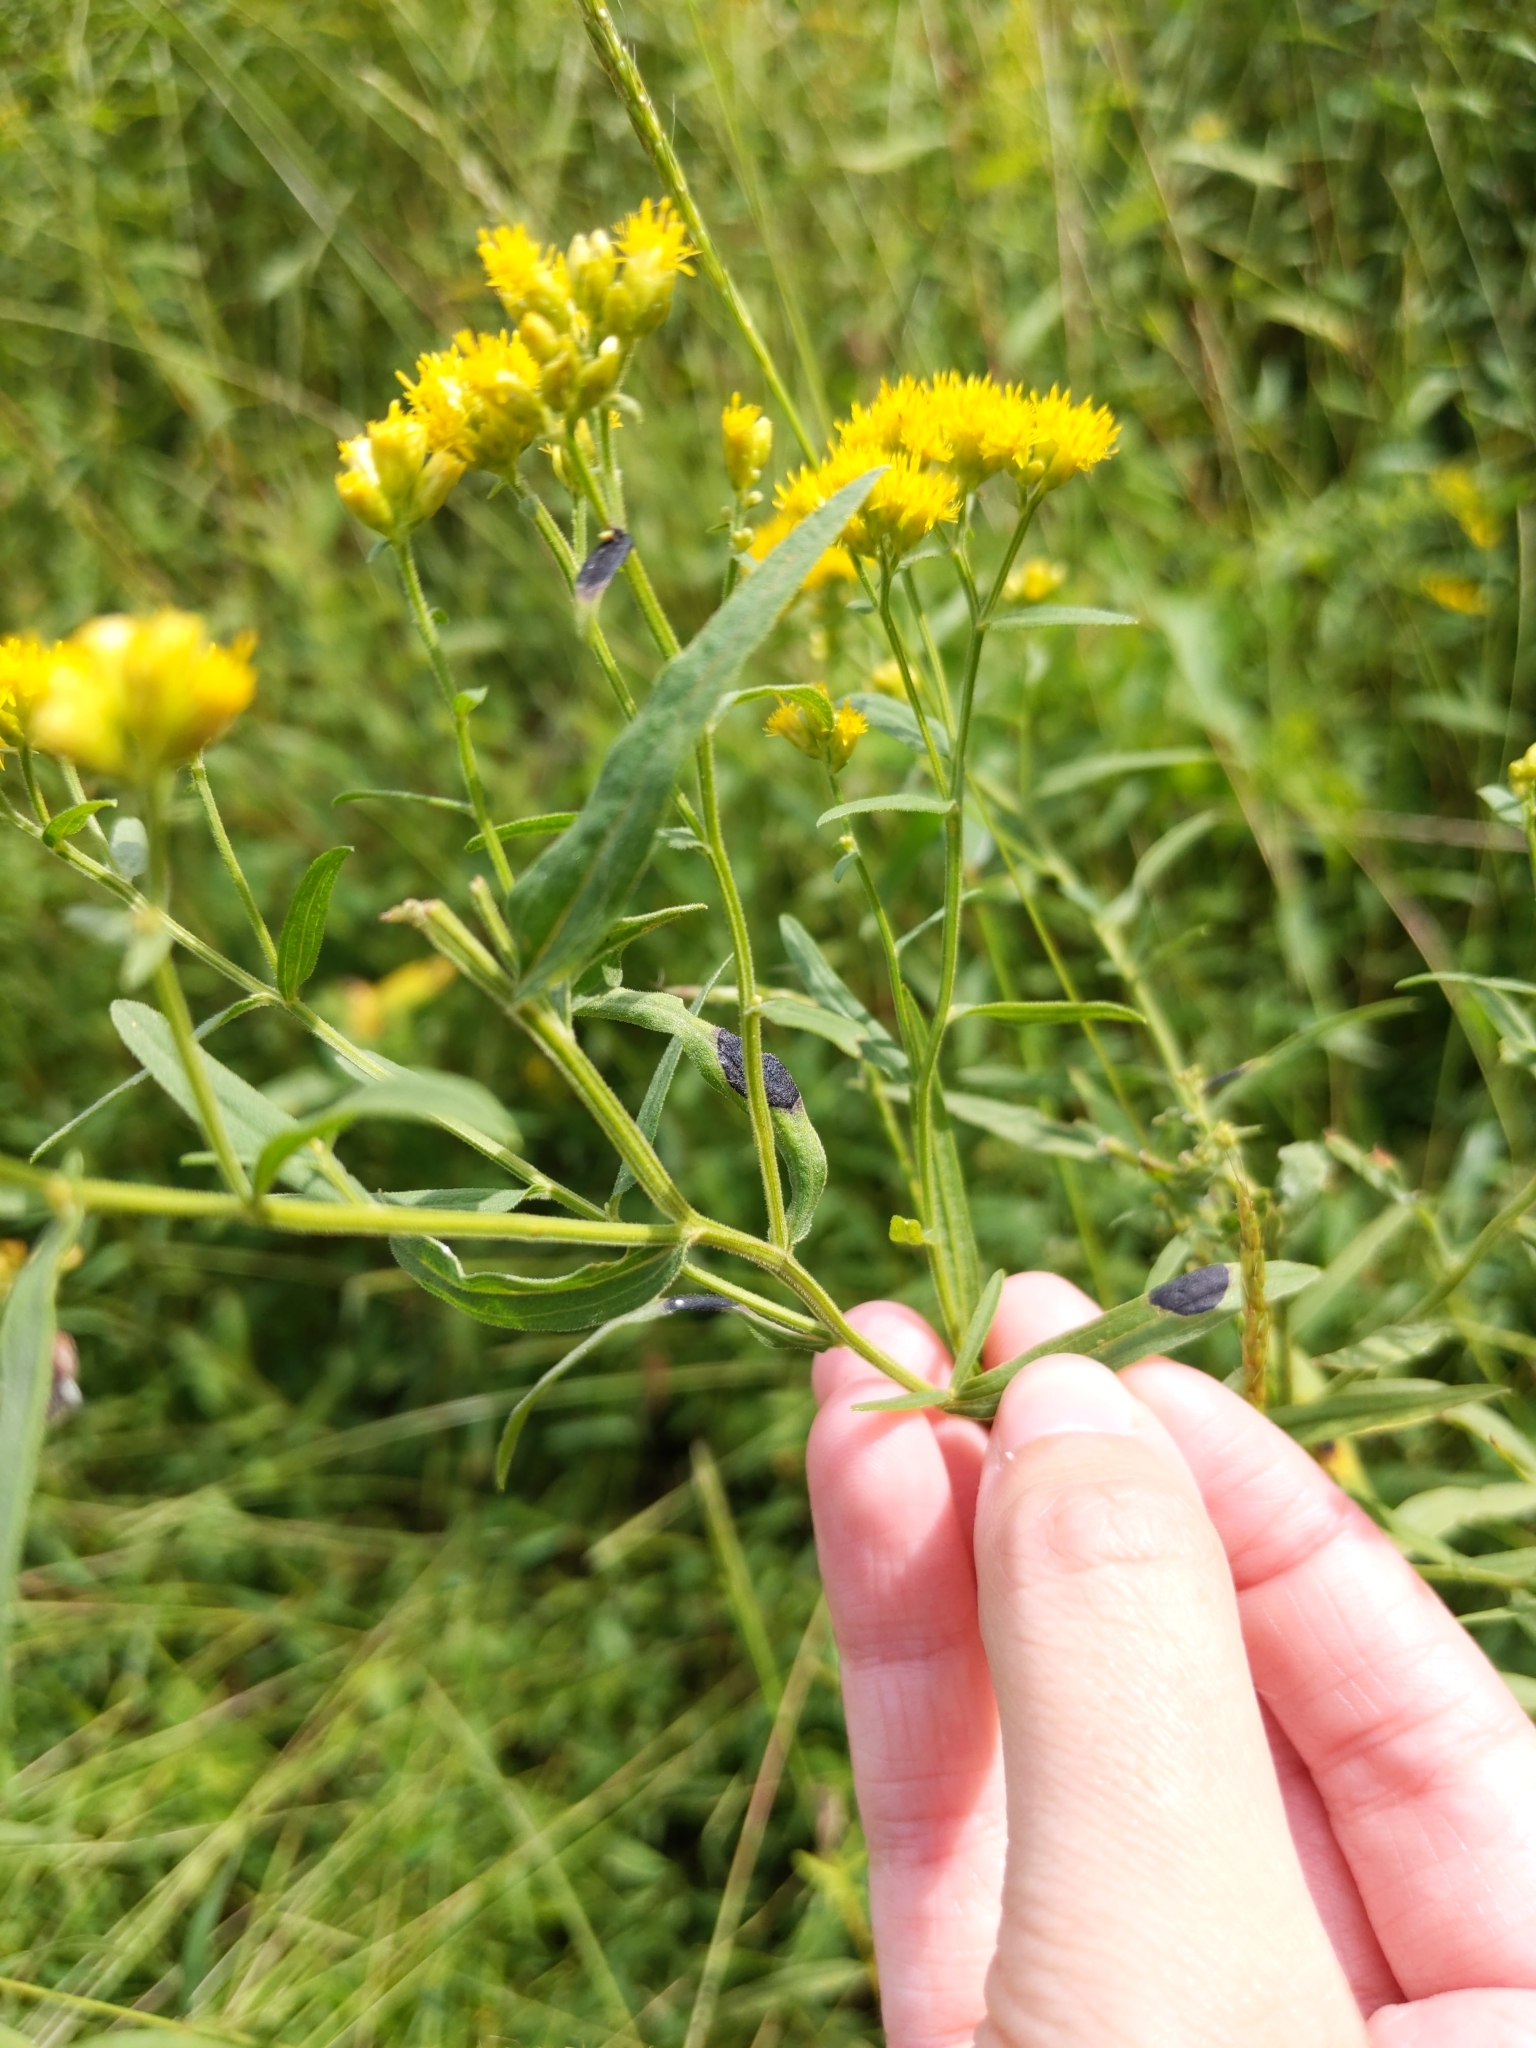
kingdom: Plantae
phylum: Tracheophyta
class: Magnoliopsida
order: Asterales
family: Asteraceae
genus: Euthamia
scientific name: Euthamia graminifolia
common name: Common goldentop
